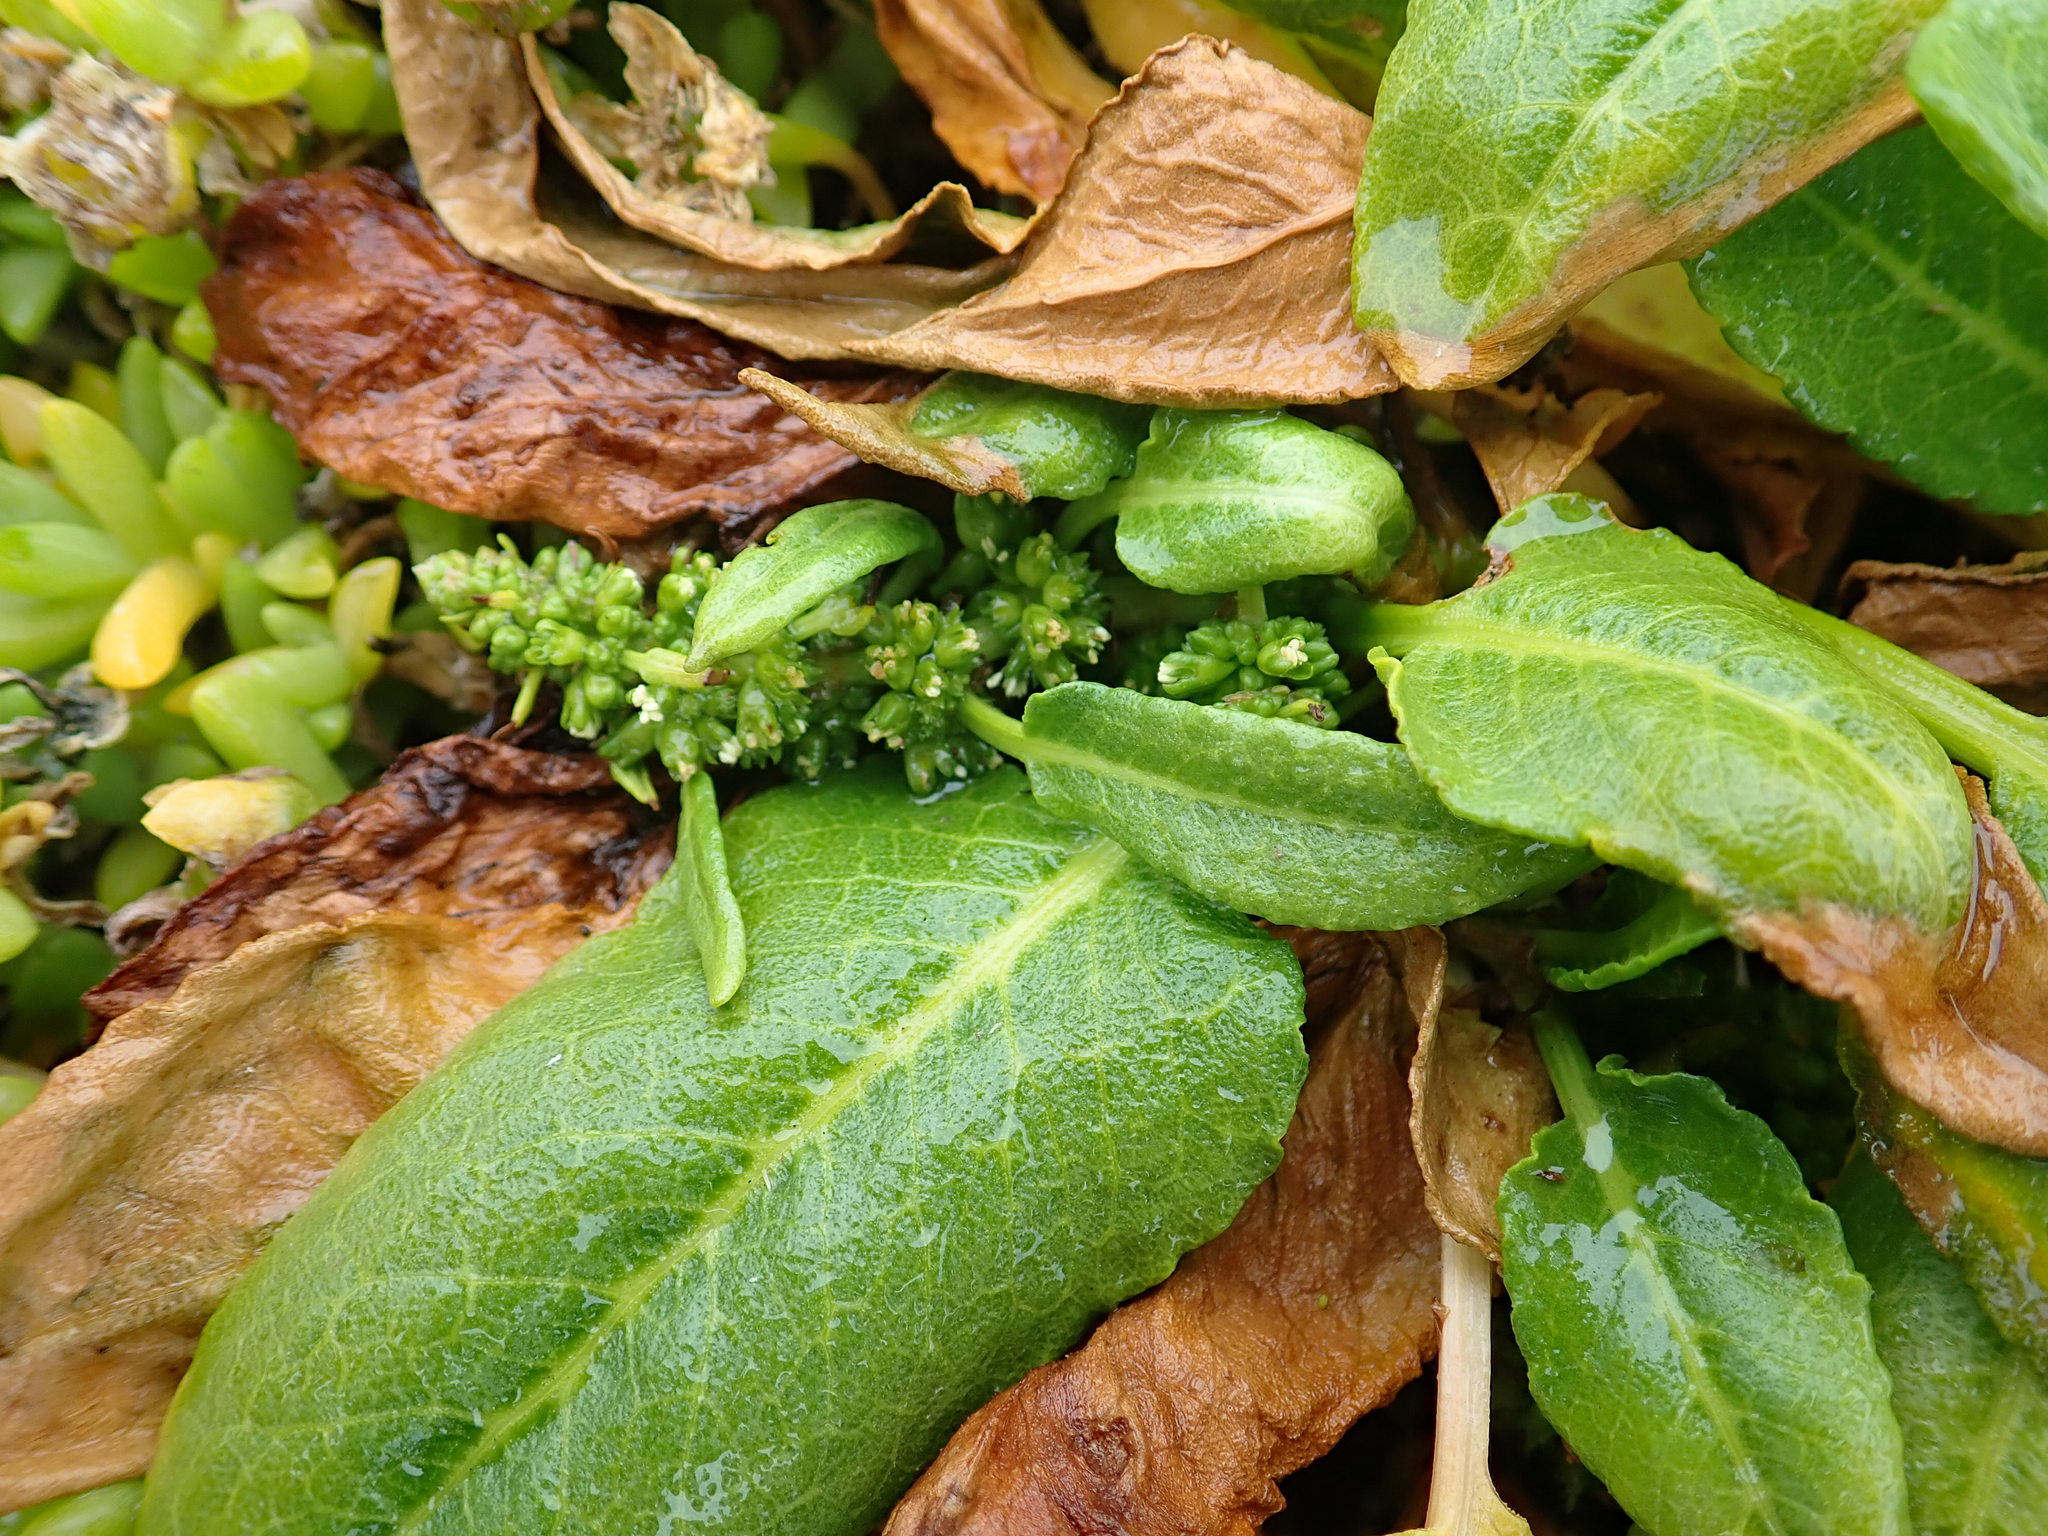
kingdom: Plantae
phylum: Tracheophyta
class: Magnoliopsida
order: Caryophyllales
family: Polygonaceae
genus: Rumex
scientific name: Rumex neglectus
